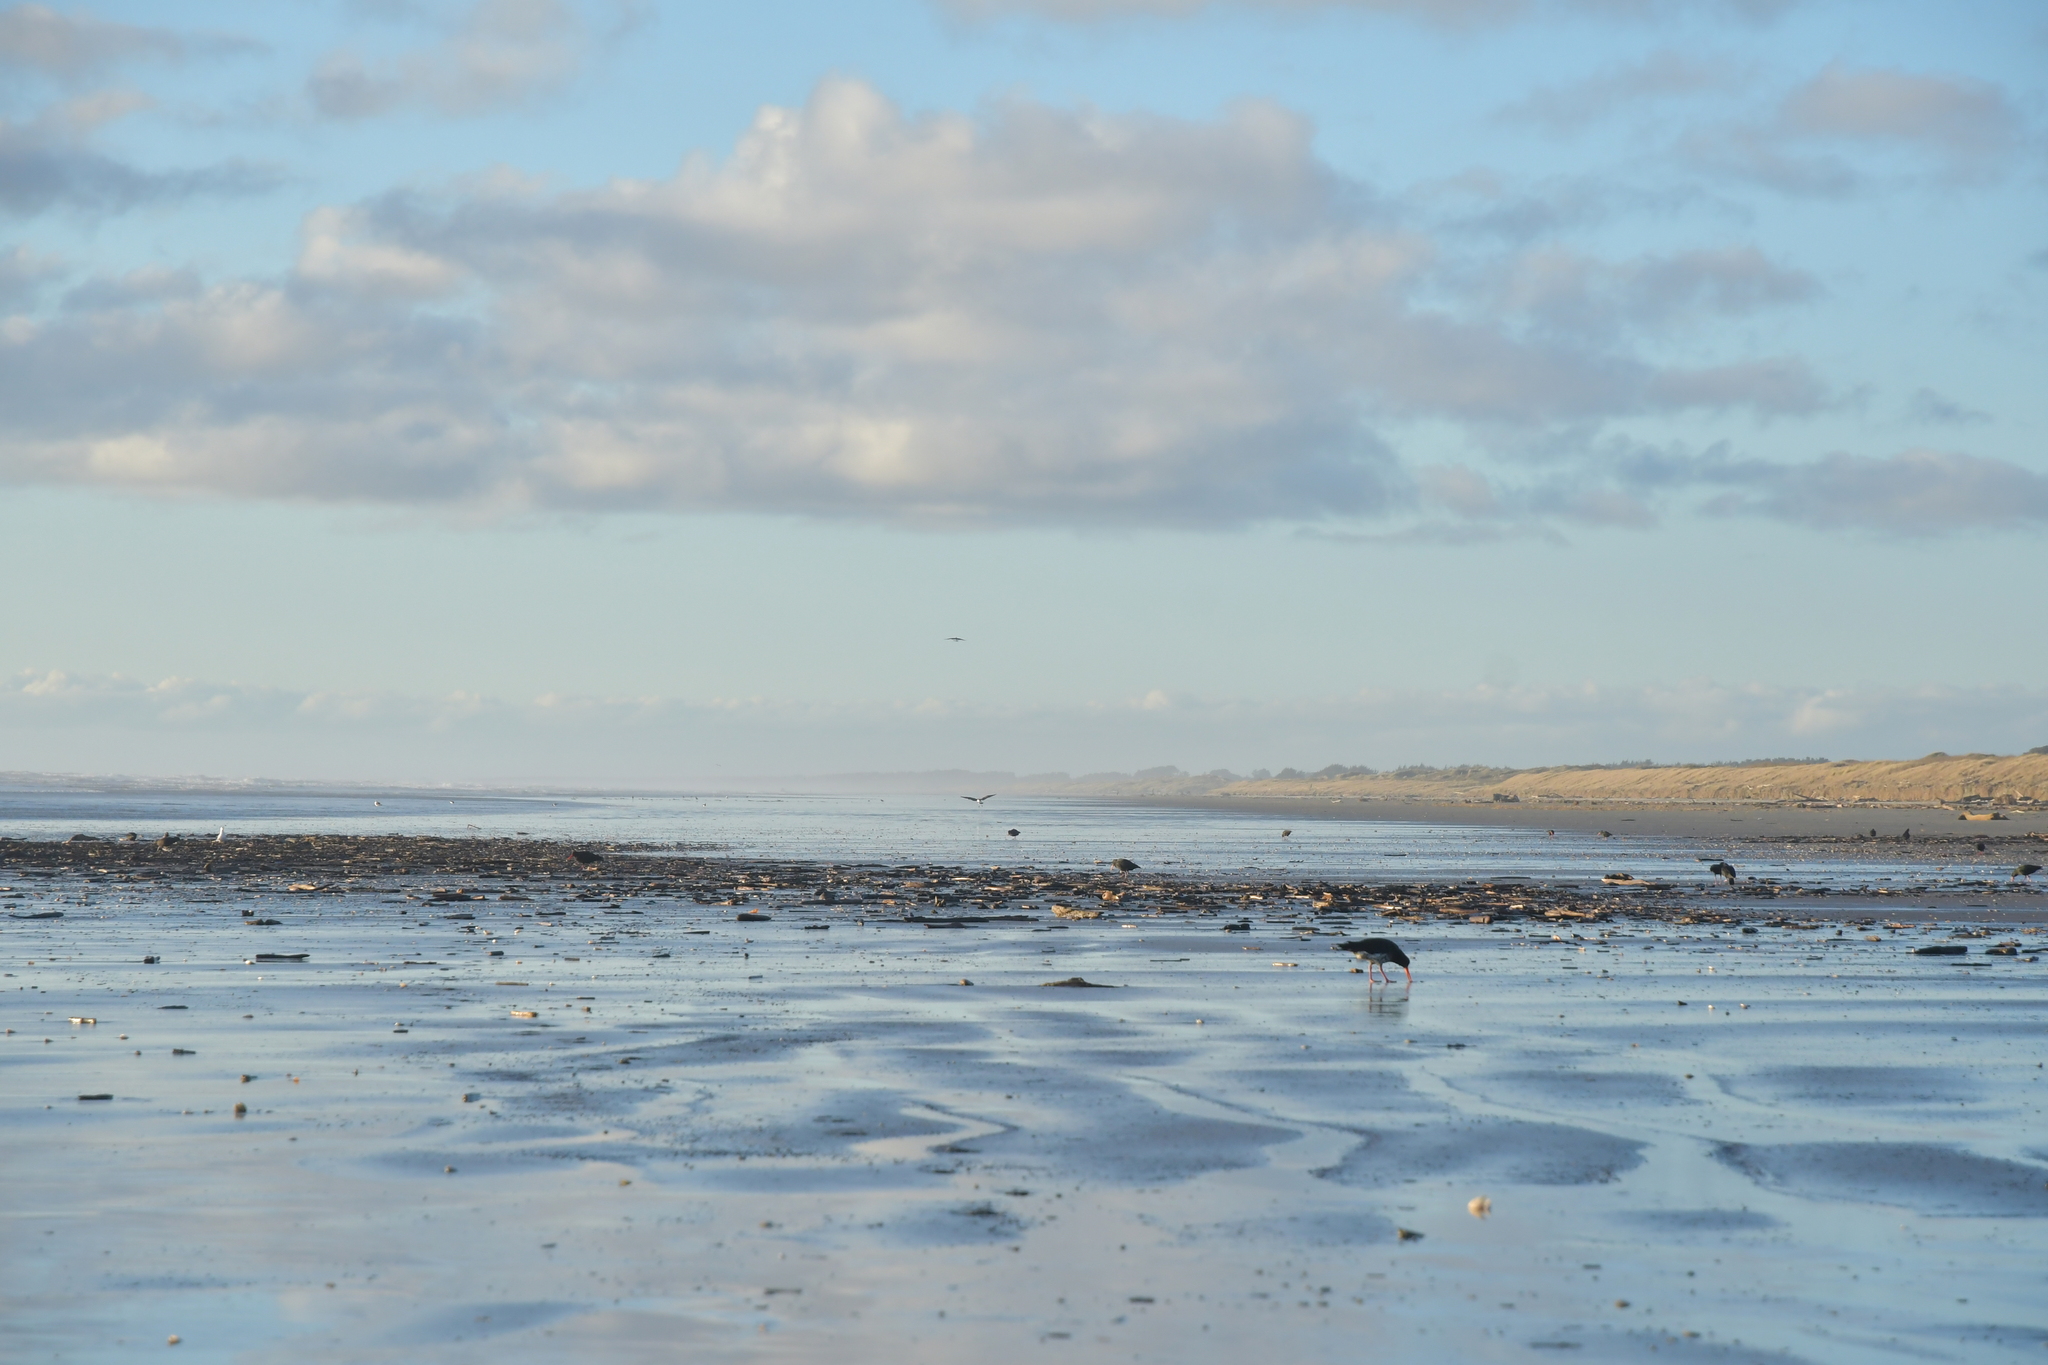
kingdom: Animalia
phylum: Chordata
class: Aves
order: Charadriiformes
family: Haematopodidae
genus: Haematopus
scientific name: Haematopus unicolor
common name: Variable oystercatcher
